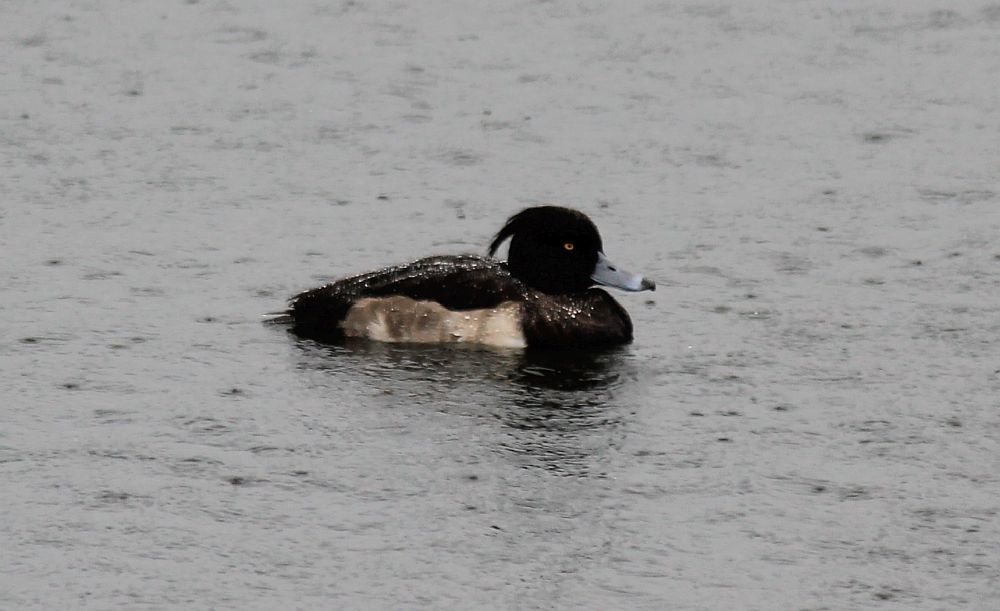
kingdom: Animalia
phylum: Chordata
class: Aves
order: Anseriformes
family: Anatidae
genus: Aythya
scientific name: Aythya fuligula
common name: Tufted duck
